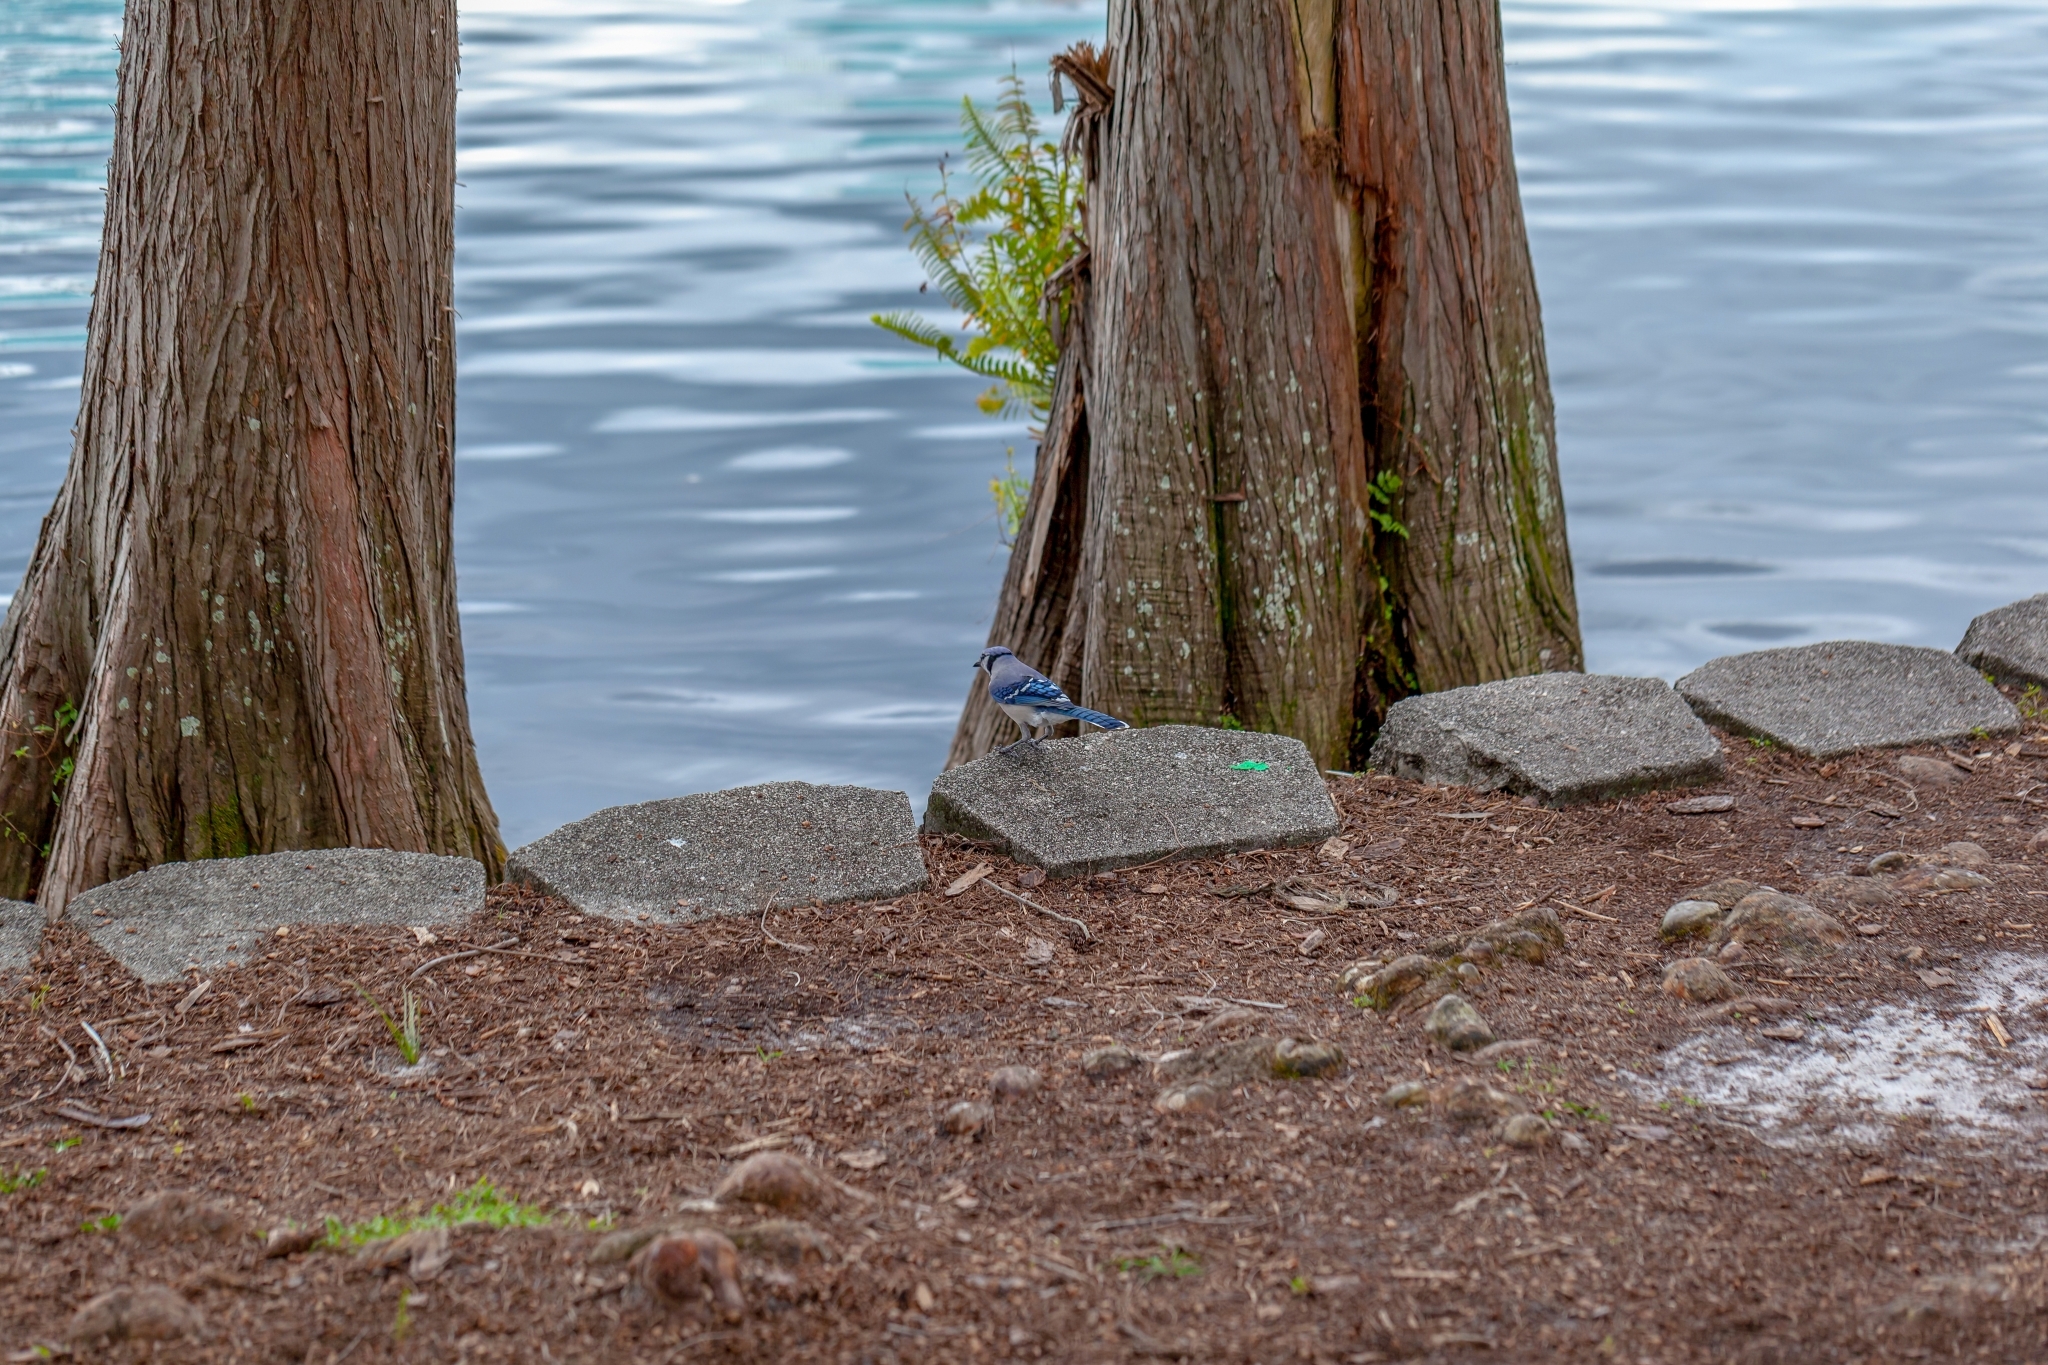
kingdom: Animalia
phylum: Chordata
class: Aves
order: Passeriformes
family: Corvidae
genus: Cyanocitta
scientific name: Cyanocitta cristata
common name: Blue jay
